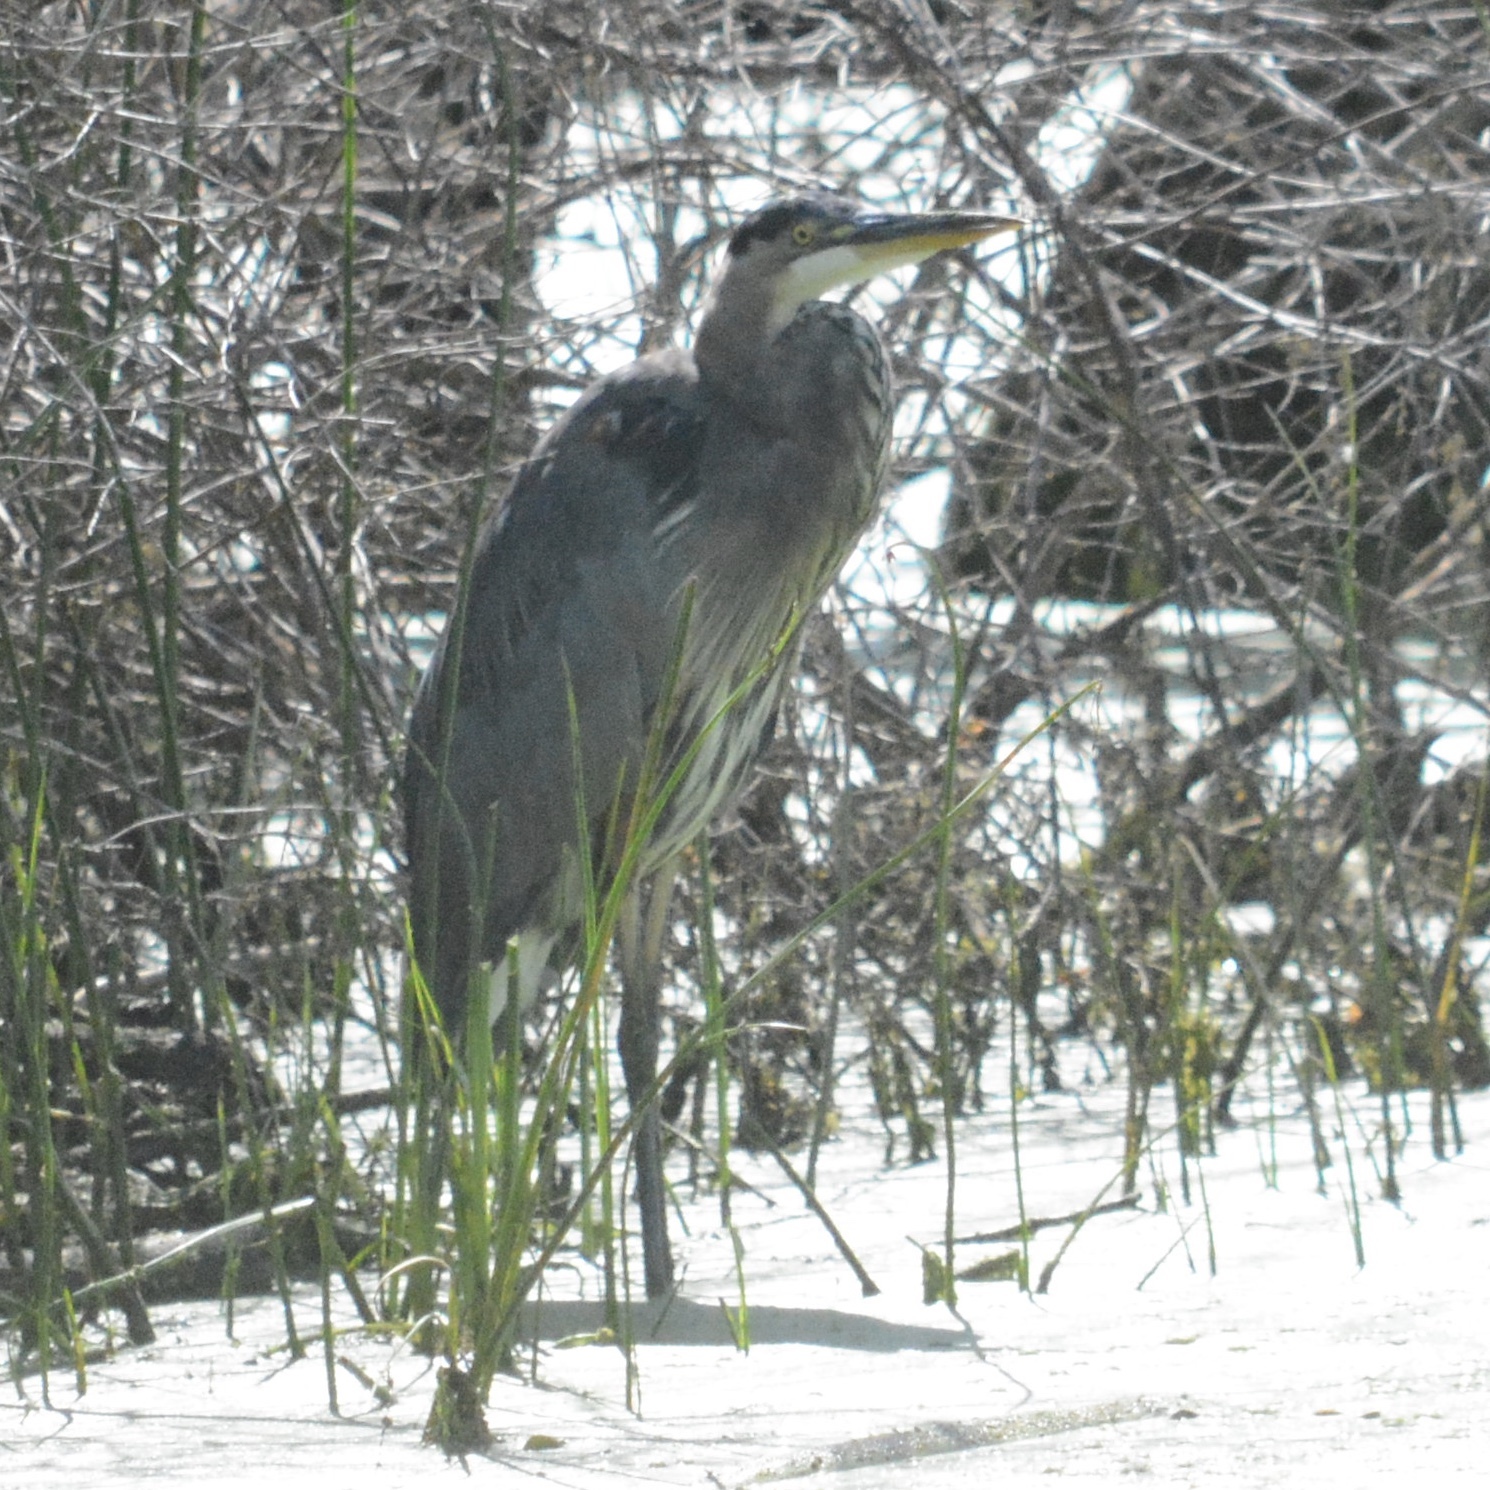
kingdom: Animalia
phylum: Chordata
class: Aves
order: Pelecaniformes
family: Ardeidae
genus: Ardea
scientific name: Ardea herodias
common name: Great blue heron
